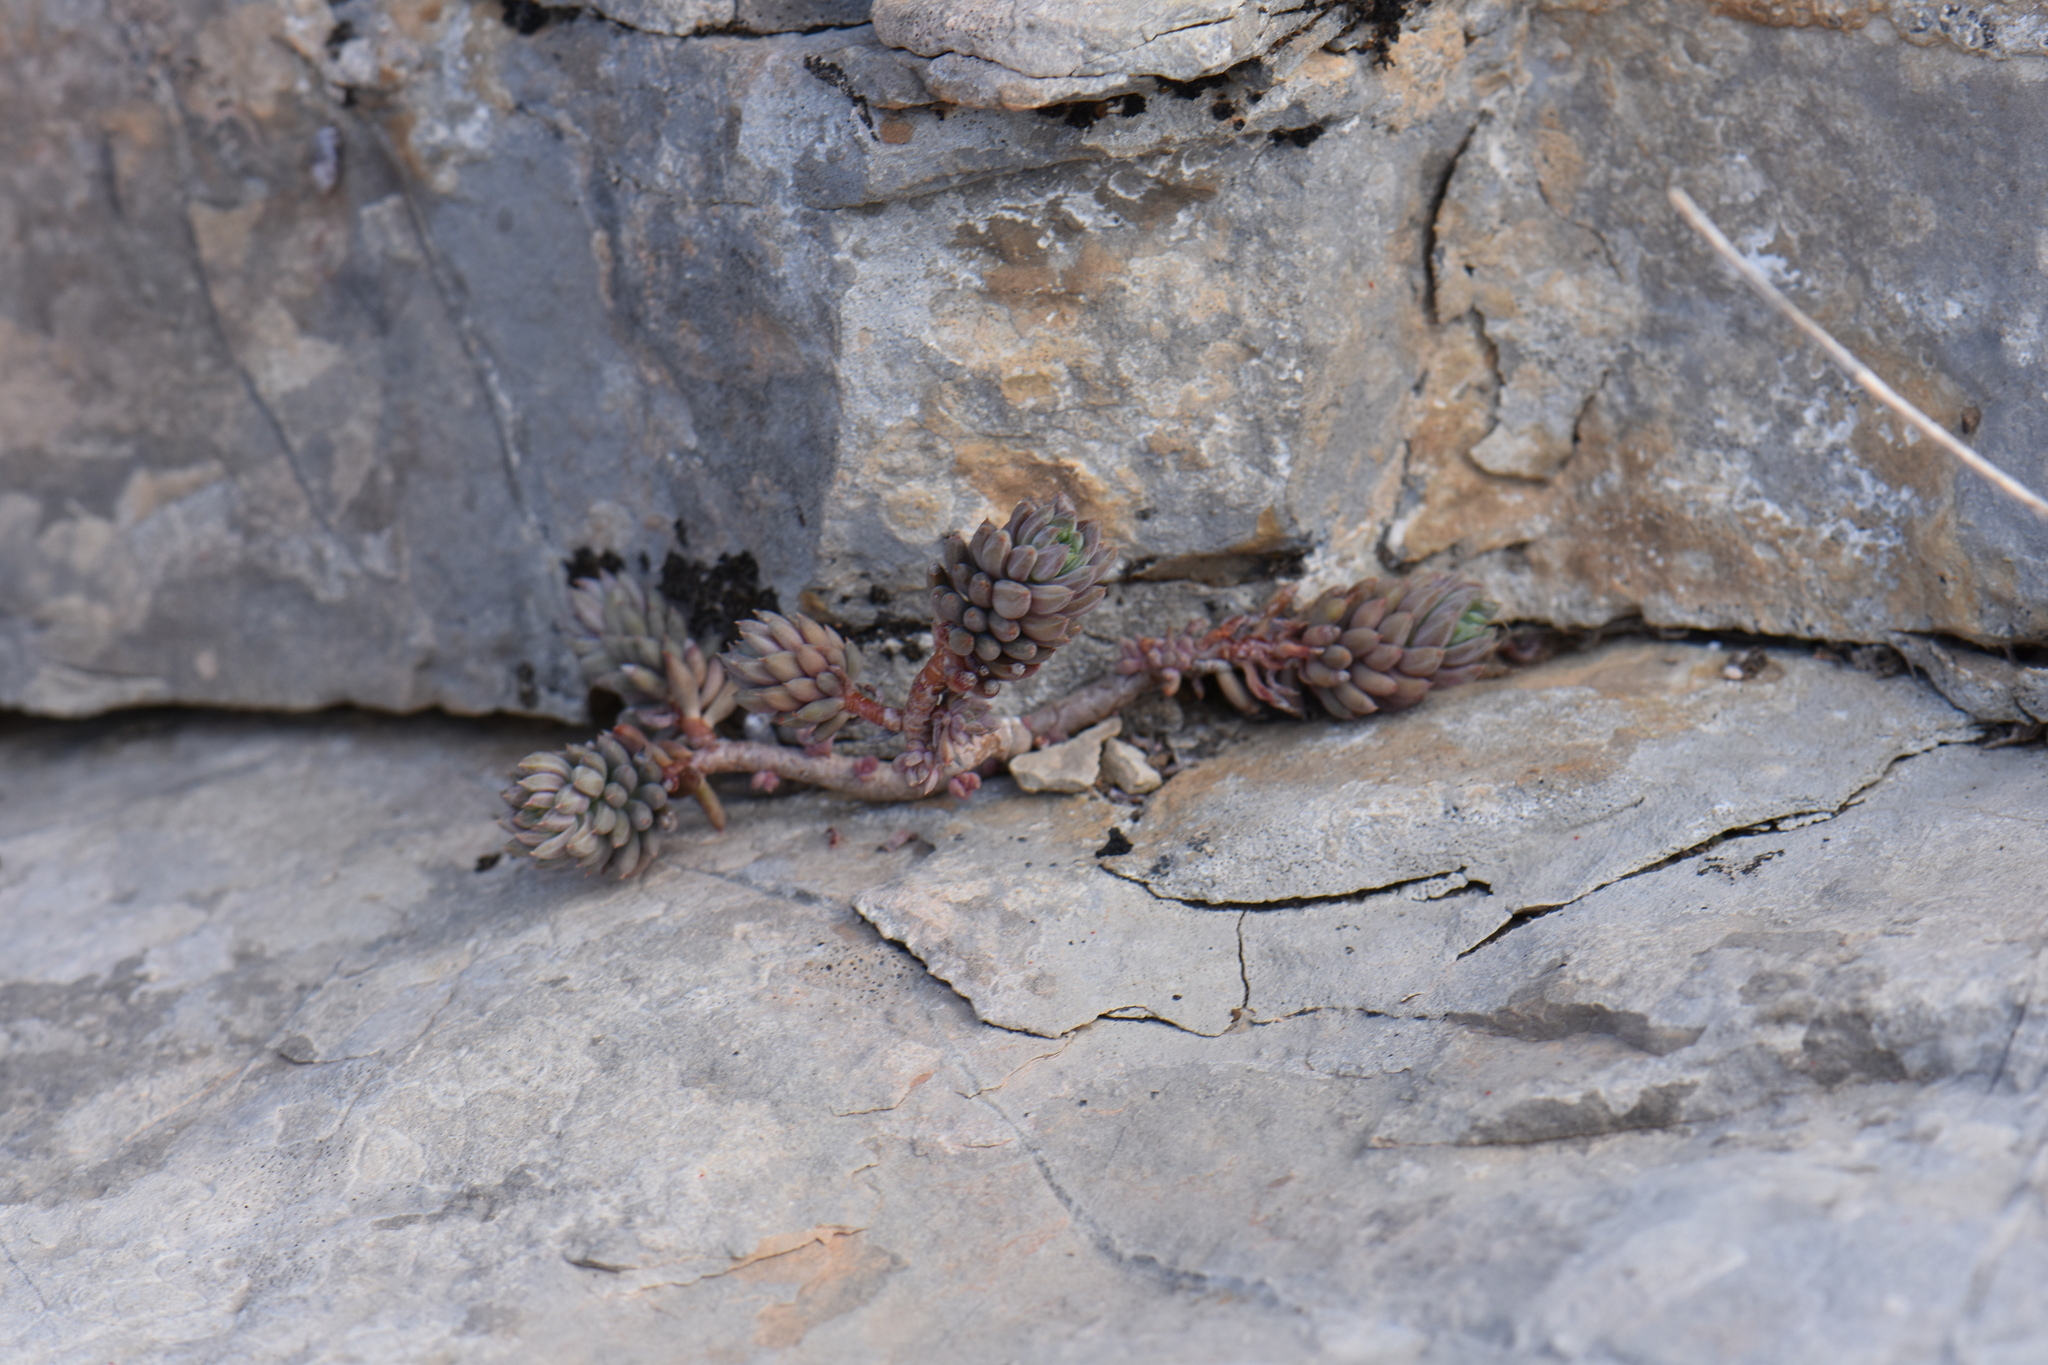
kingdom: Plantae
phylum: Tracheophyta
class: Magnoliopsida
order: Saxifragales
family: Crassulaceae
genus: Petrosedum
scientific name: Petrosedum sediforme
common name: Pale stonecrop
